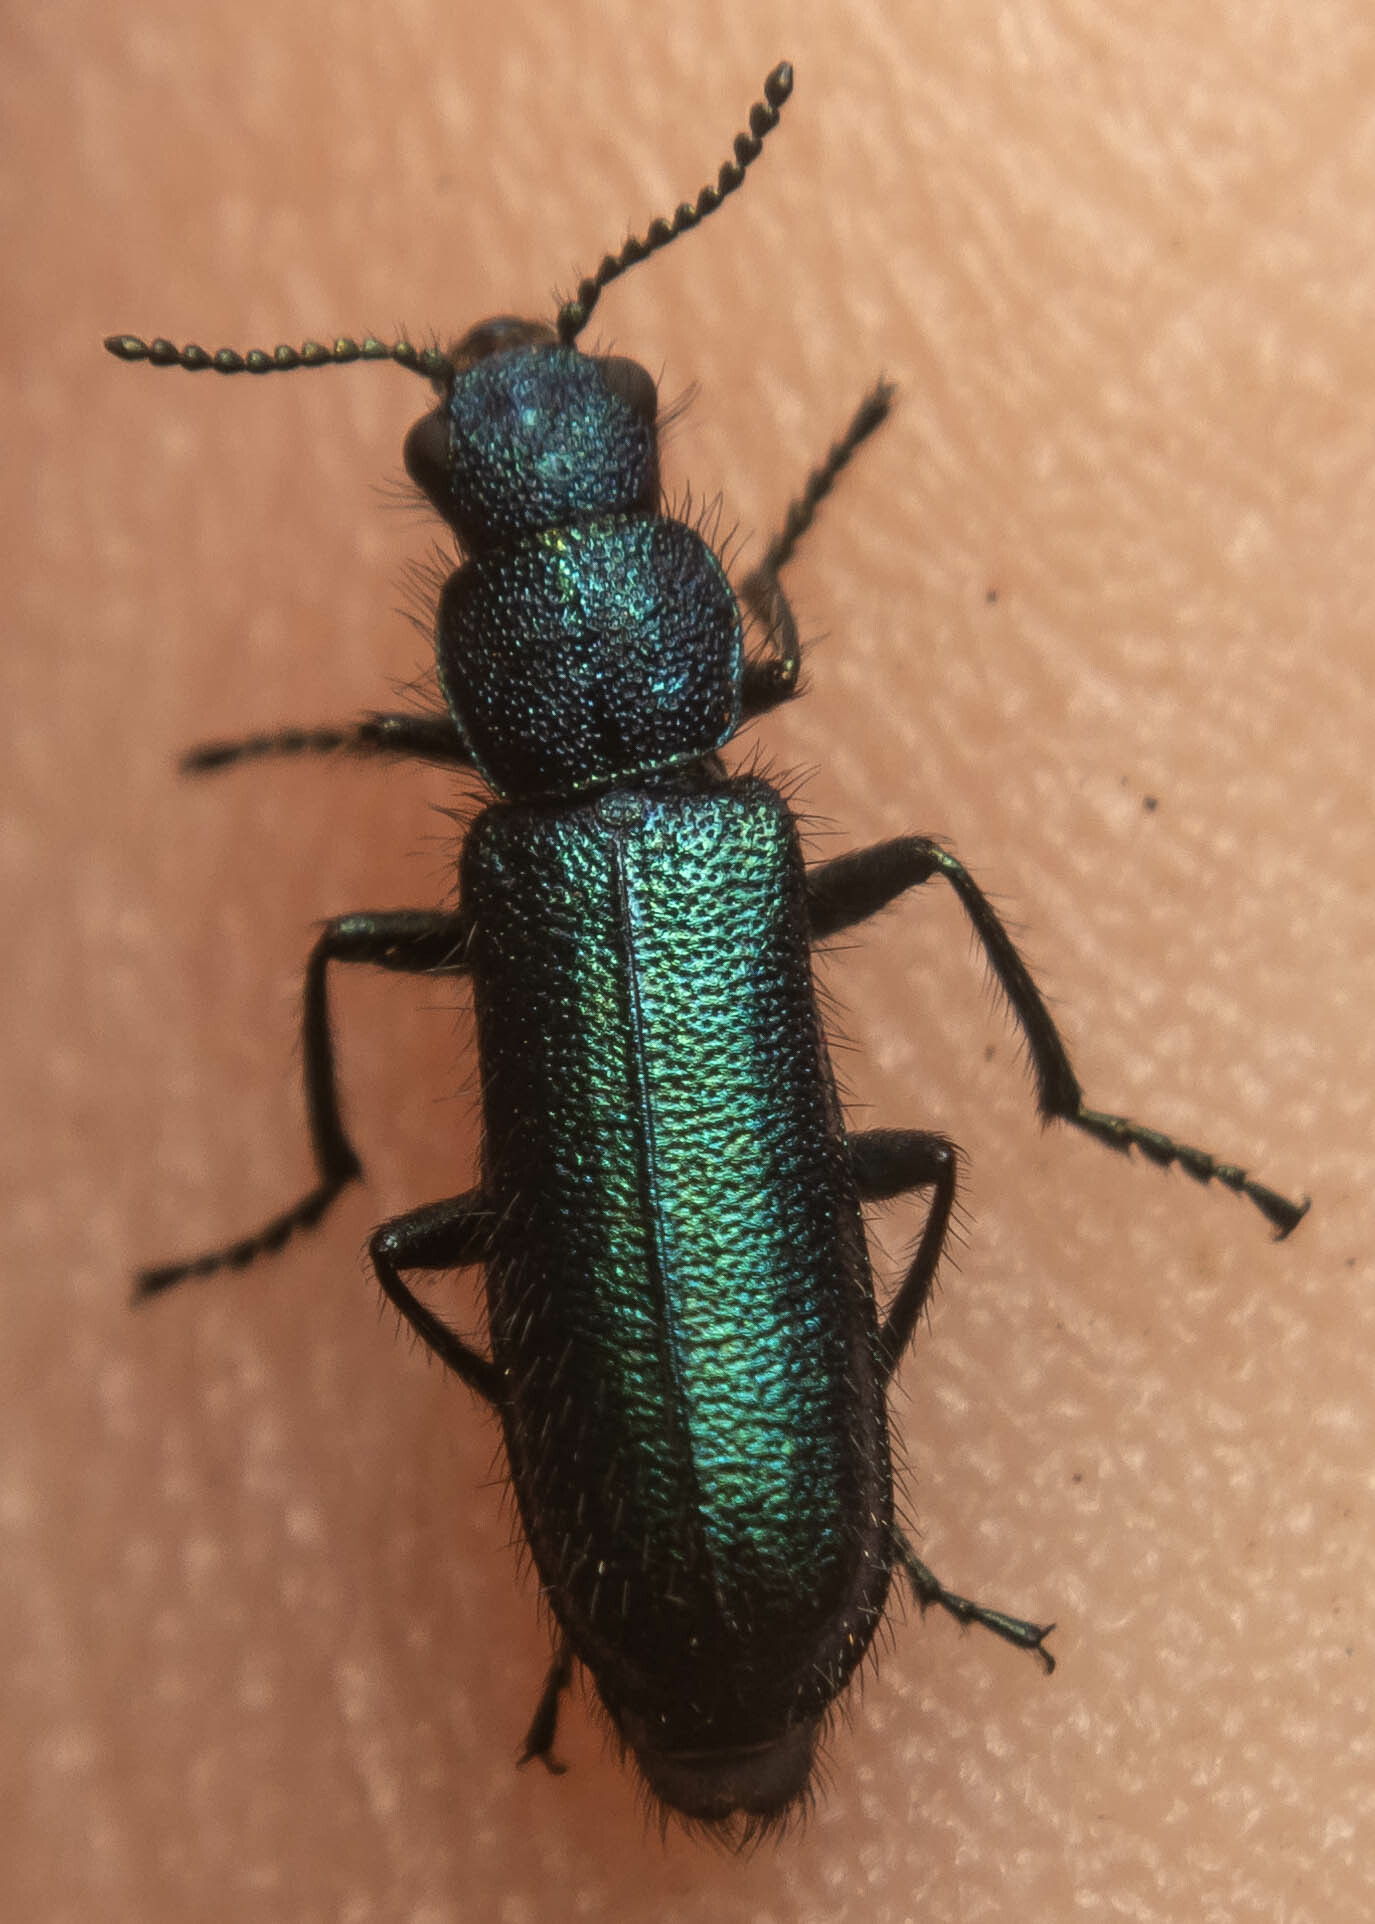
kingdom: Animalia
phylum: Arthropoda
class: Insecta
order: Coleoptera
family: Dasytidae
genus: Psilothrix
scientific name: Psilothrix viridicoerulea
